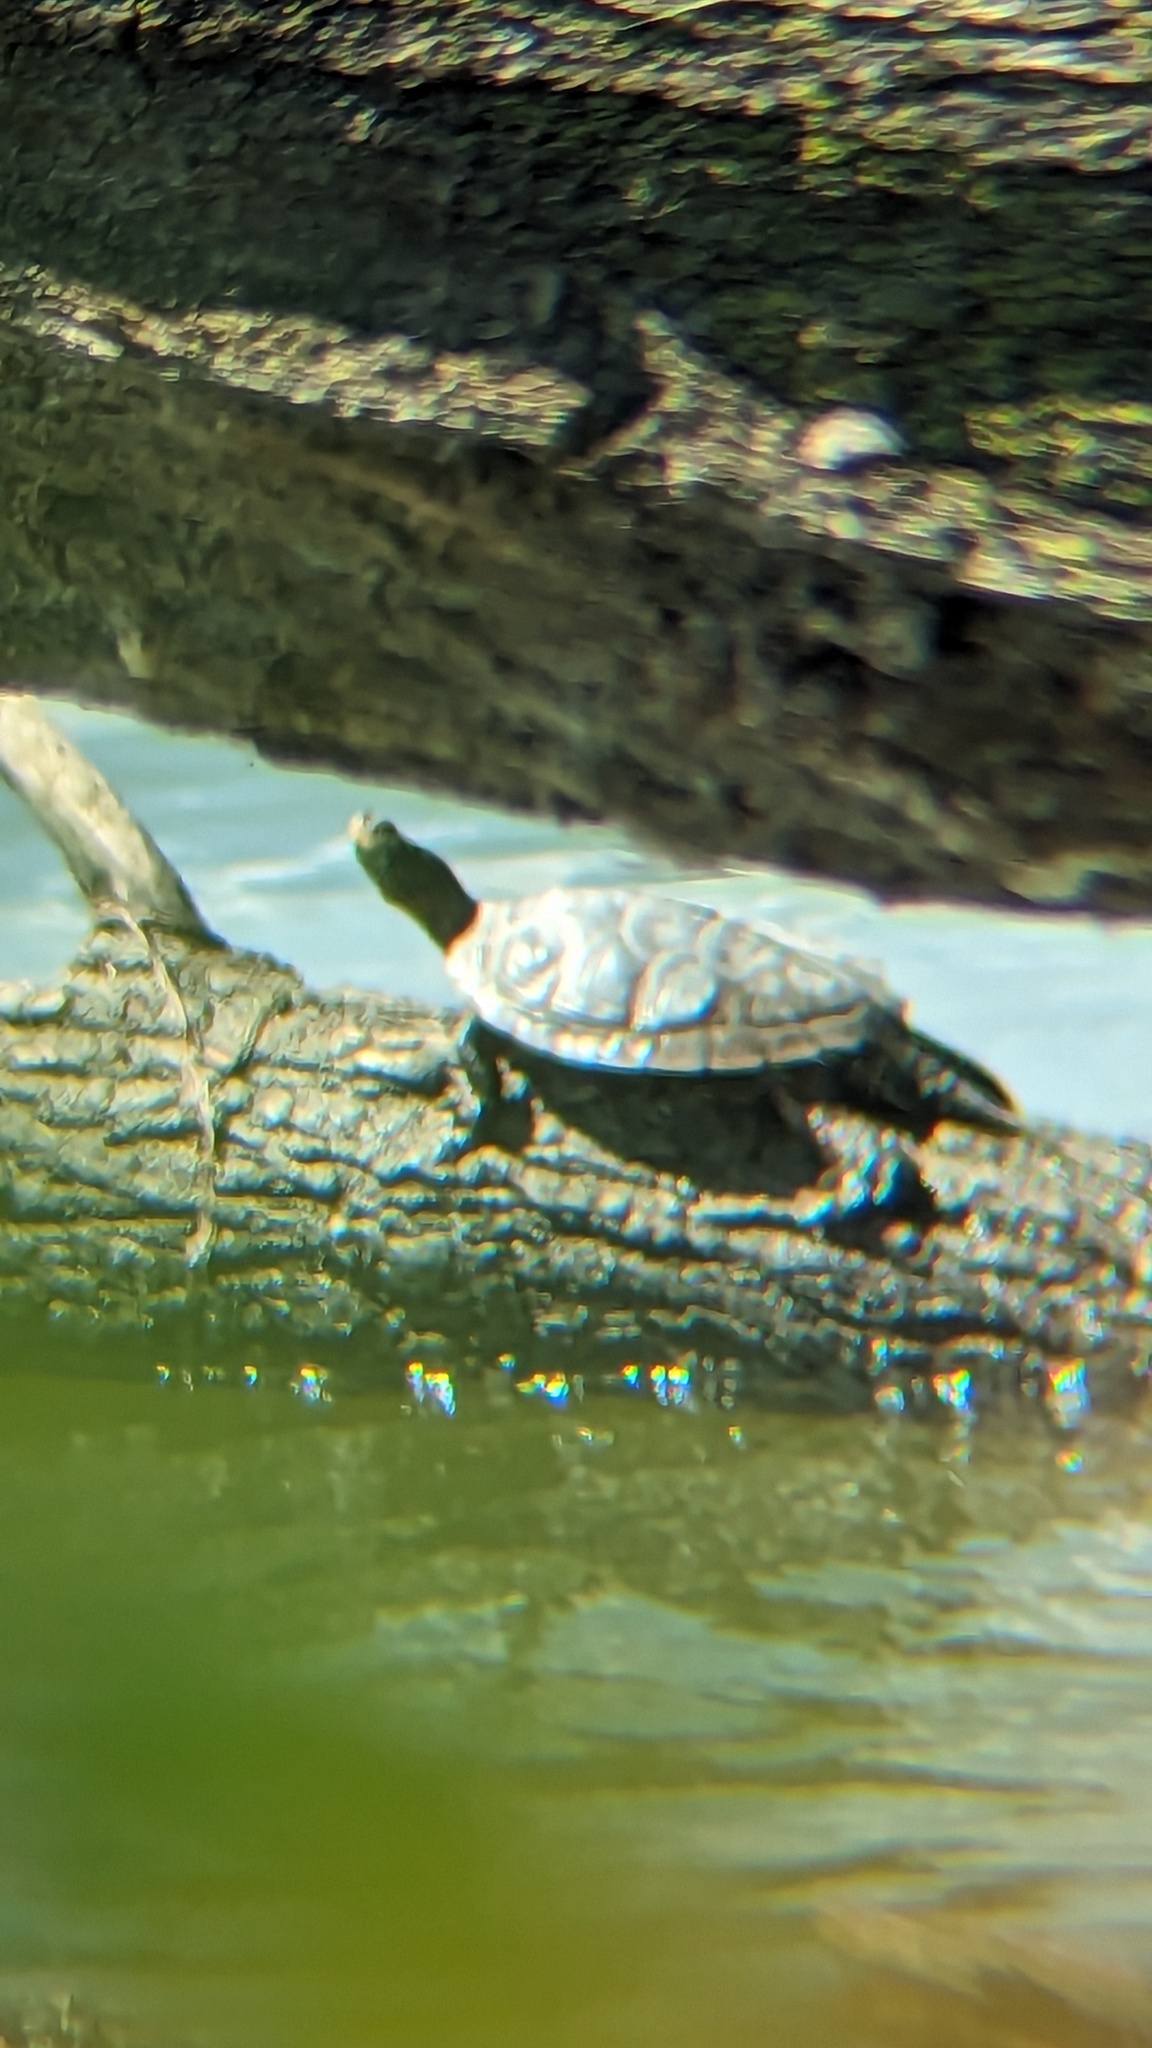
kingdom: Animalia
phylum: Chordata
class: Testudines
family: Emydidae
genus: Graptemys
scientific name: Graptemys geographica
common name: Common map turtle
